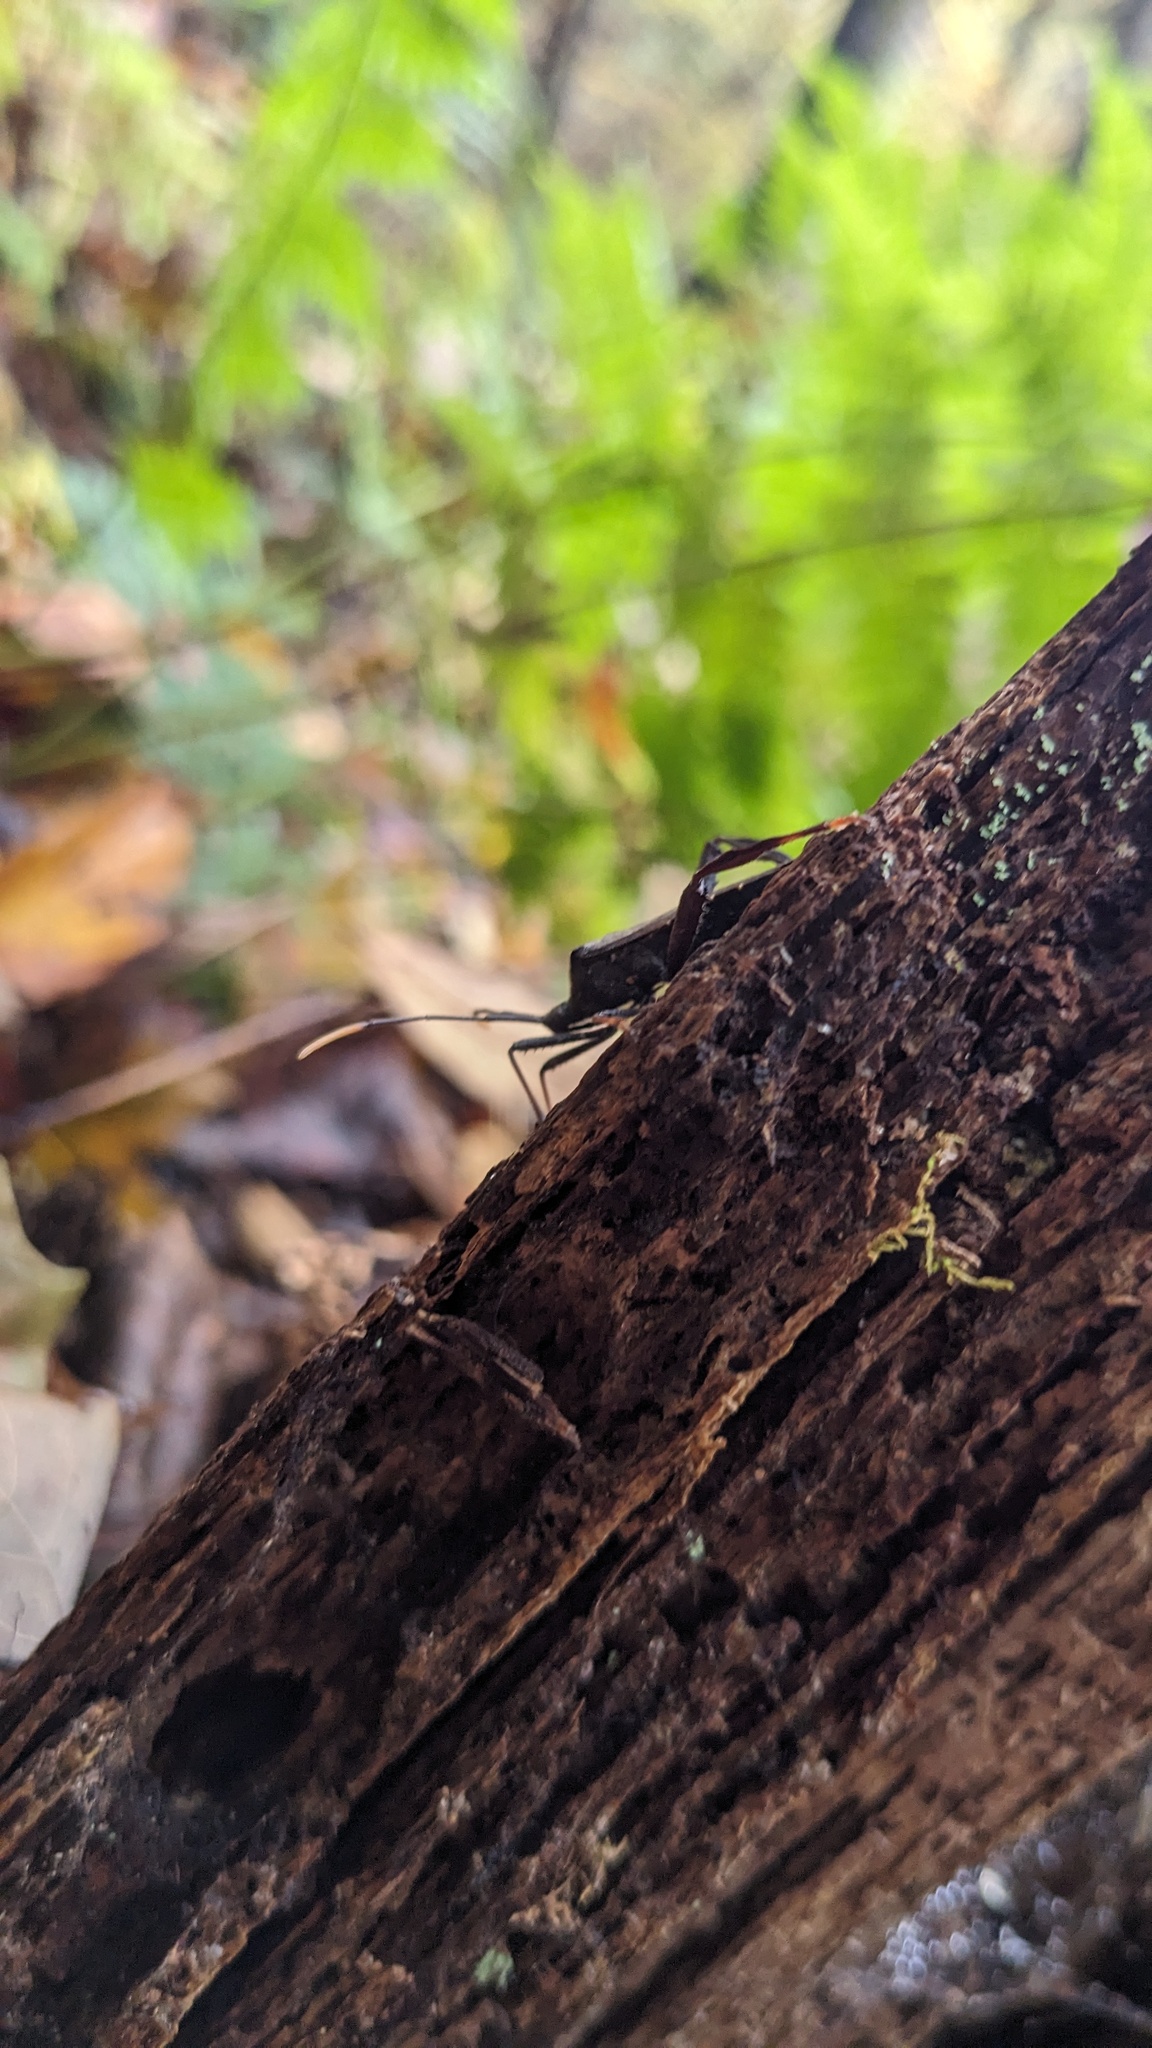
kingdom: Animalia
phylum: Arthropoda
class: Insecta
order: Hemiptera
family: Coreidae
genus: Acanthocephala
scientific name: Acanthocephala terminalis
